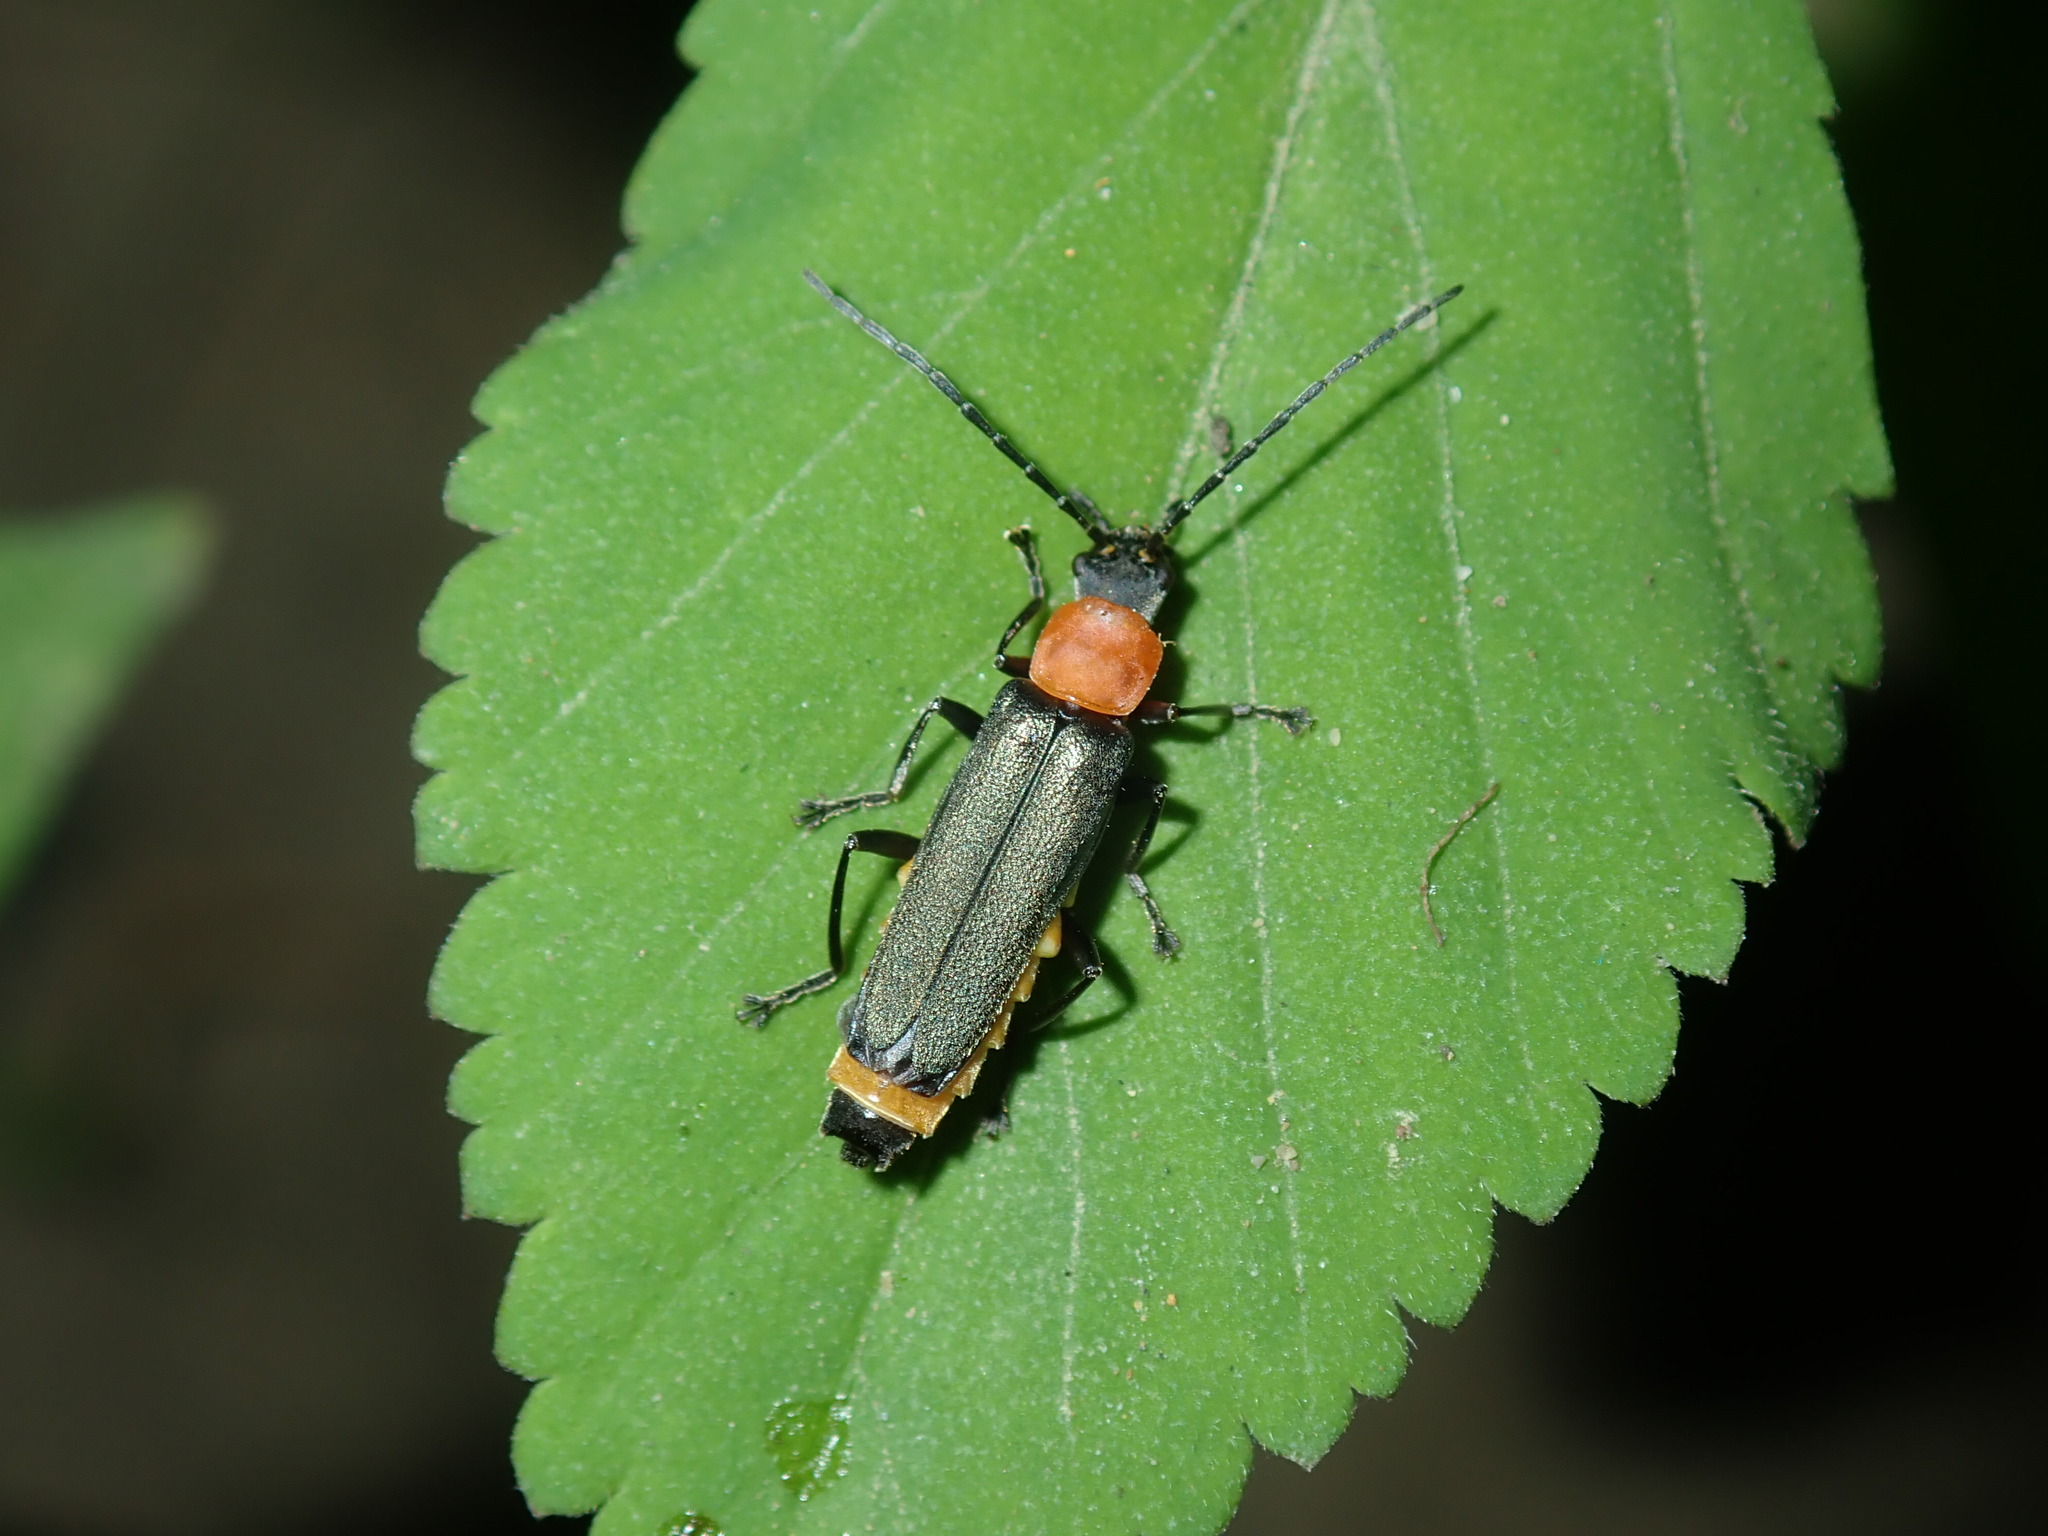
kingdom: Animalia
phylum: Arthropoda
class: Insecta
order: Coleoptera
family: Cantharidae
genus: Chauliognathus
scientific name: Chauliognathus
